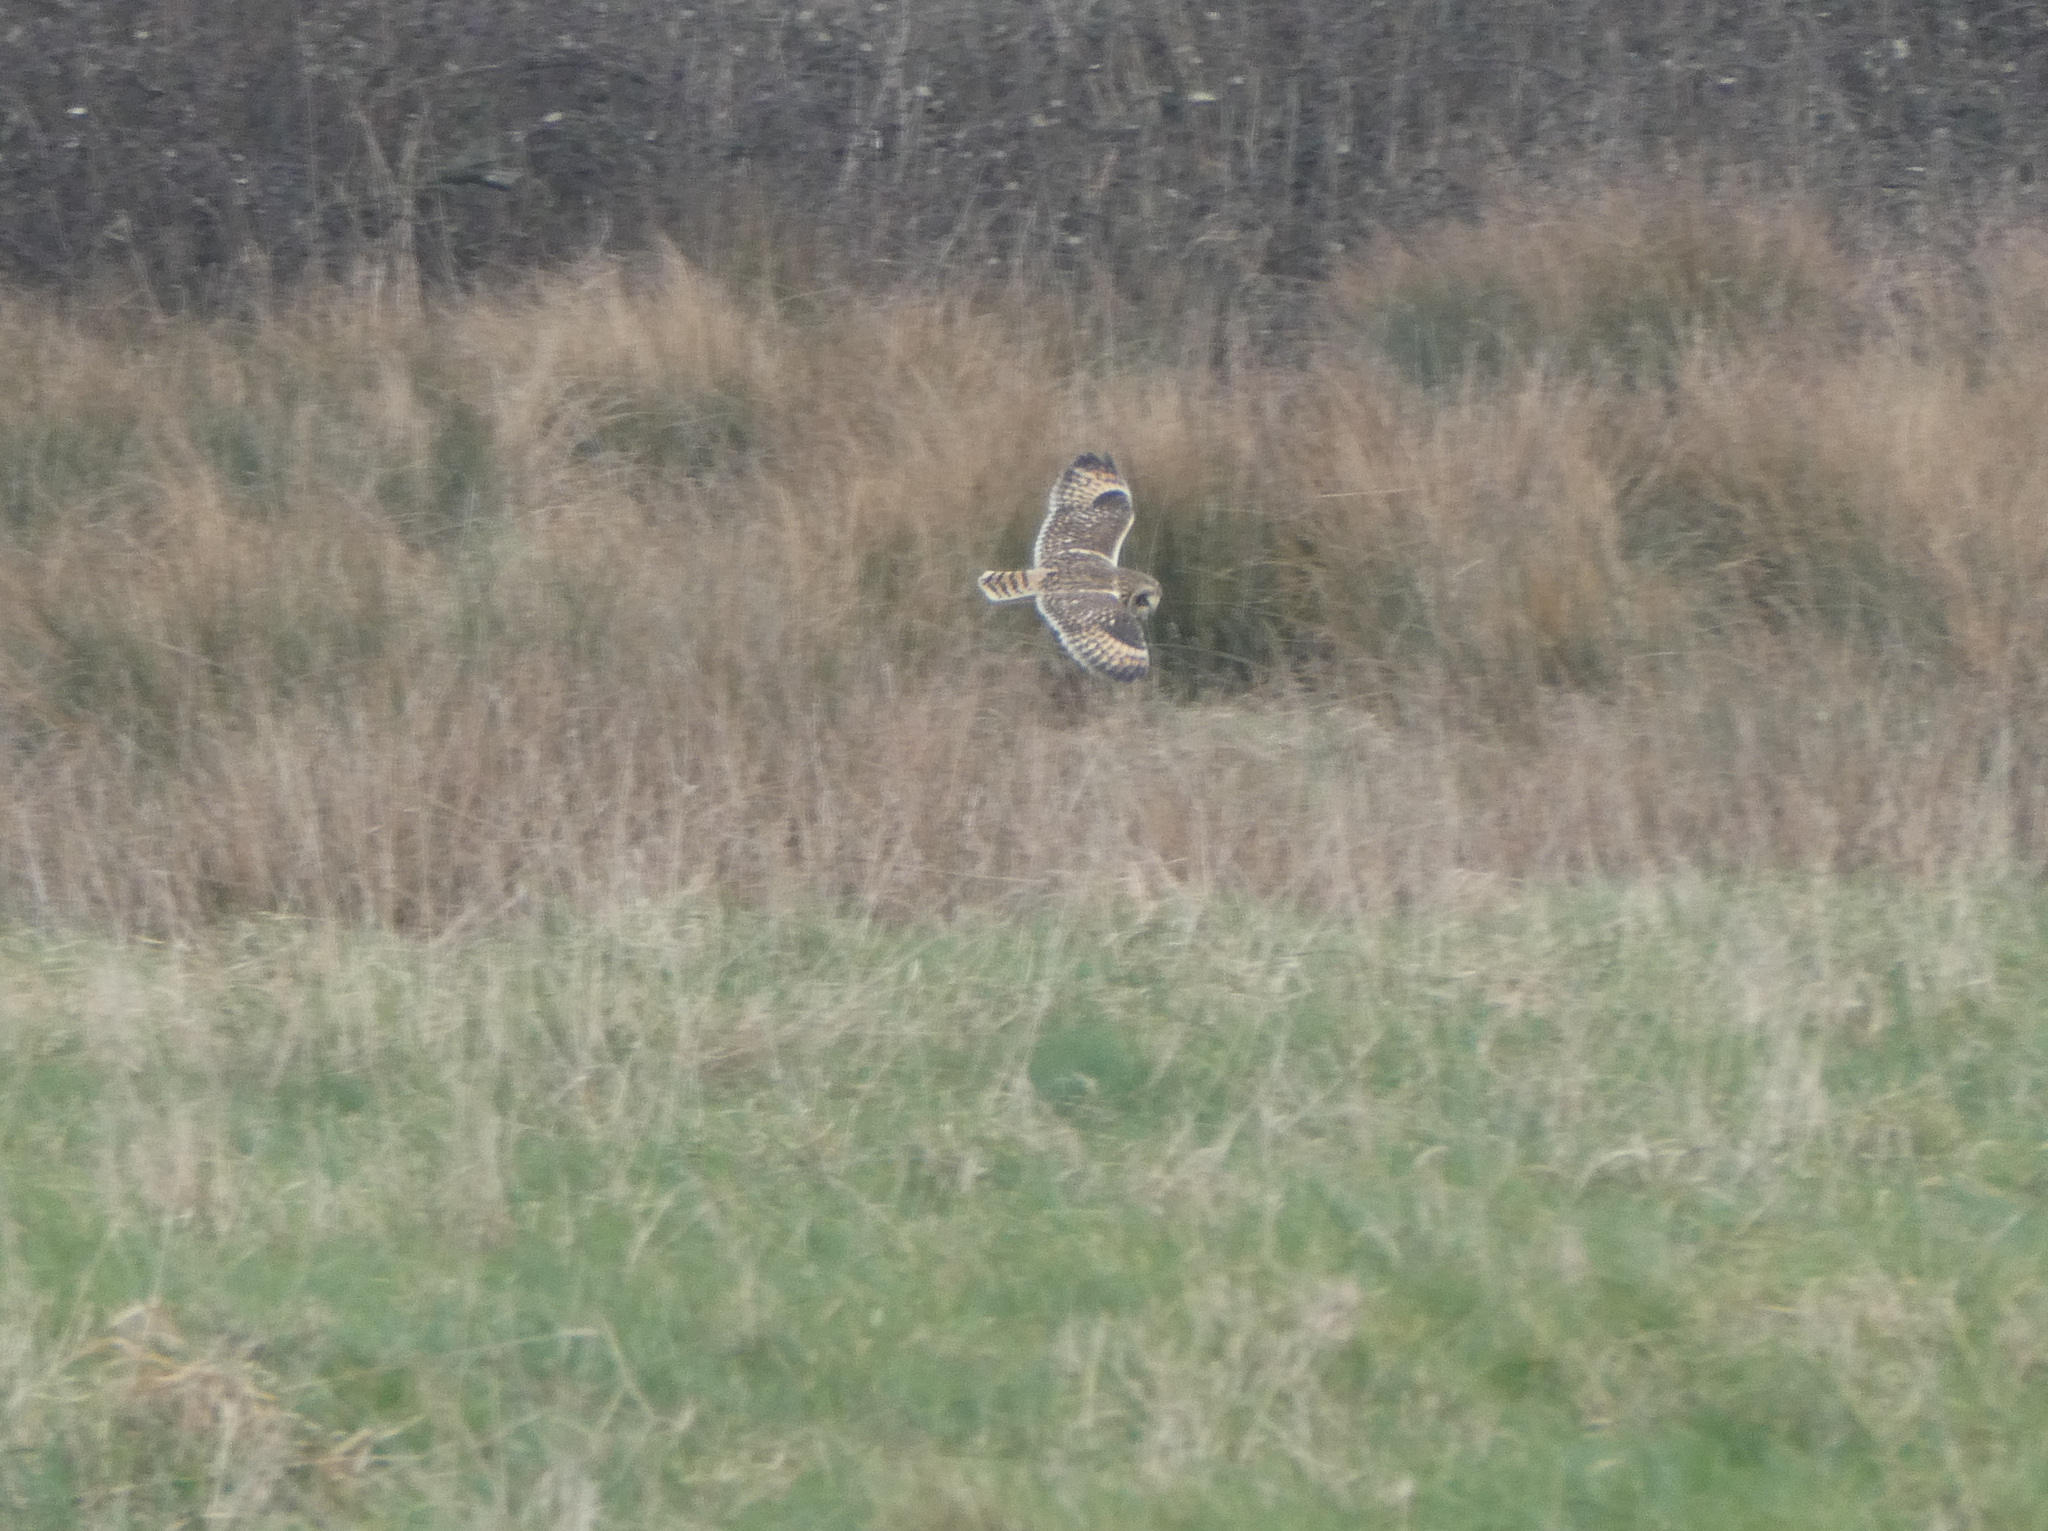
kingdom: Animalia
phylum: Chordata
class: Aves
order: Strigiformes
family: Strigidae
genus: Asio
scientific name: Asio flammeus
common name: Short-eared owl
